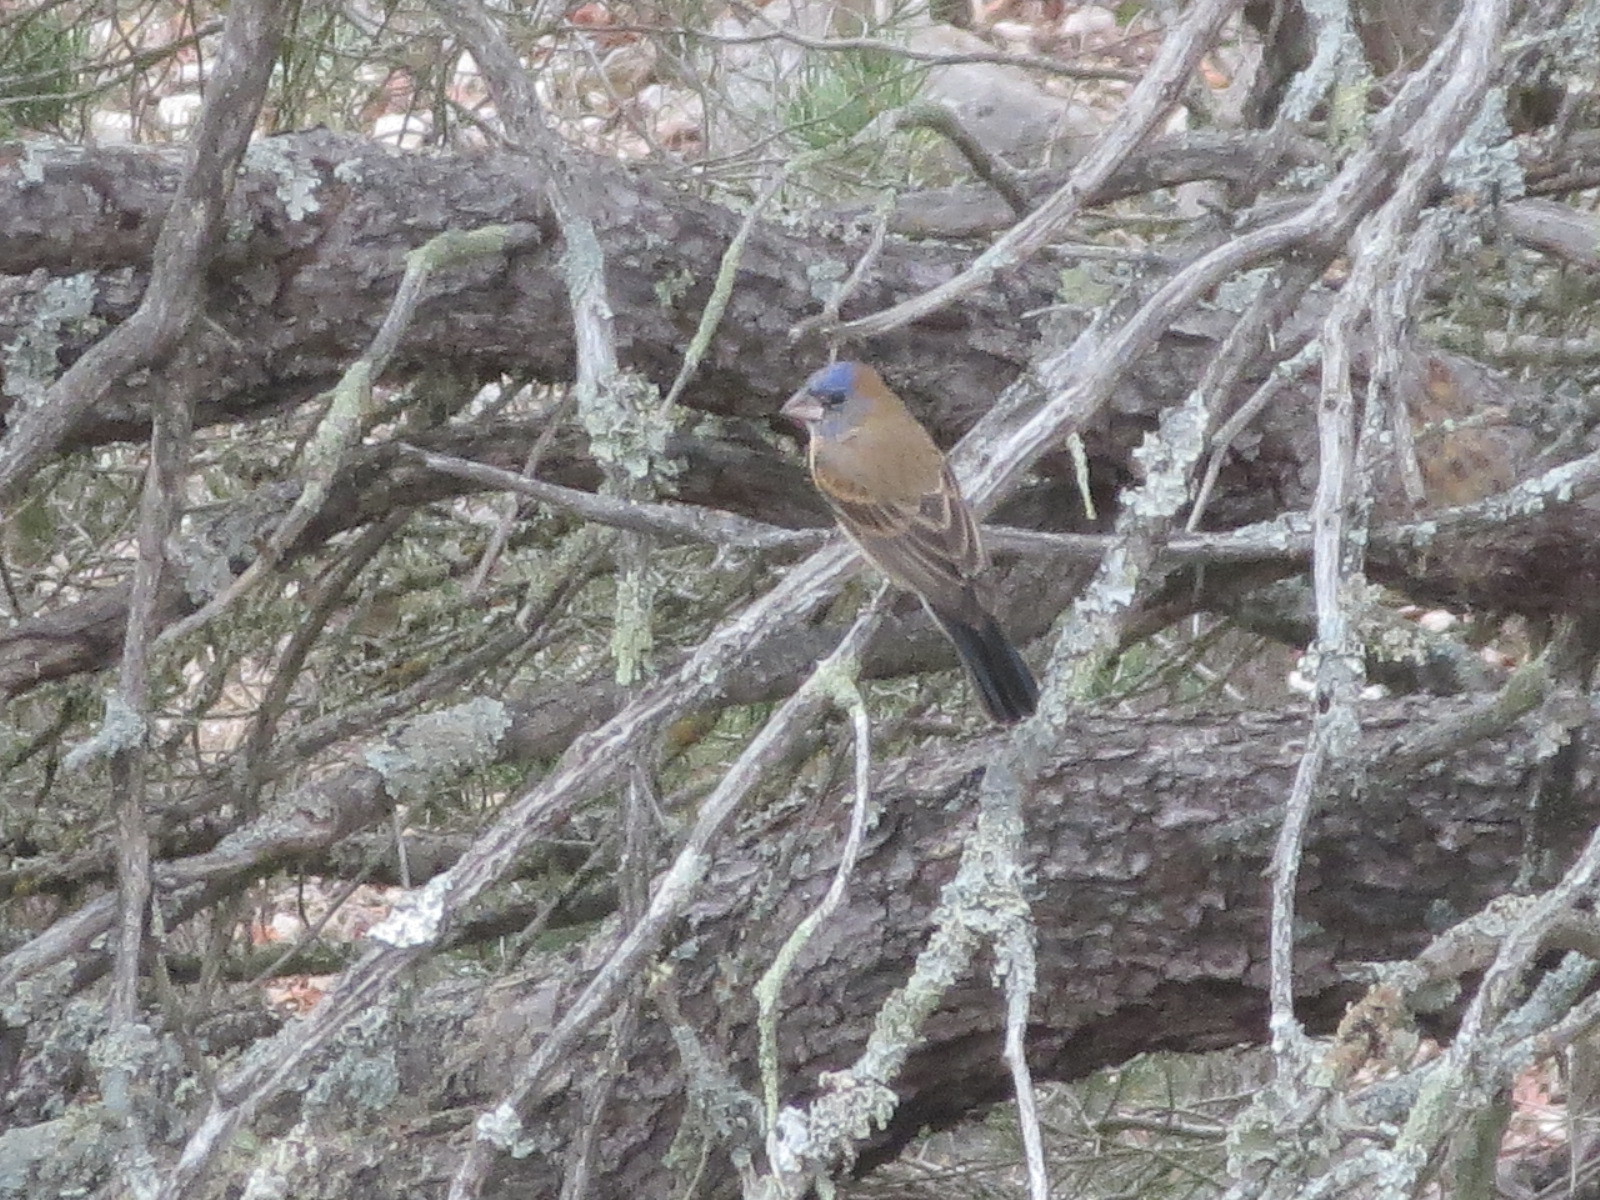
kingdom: Animalia
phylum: Chordata
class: Aves
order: Passeriformes
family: Cardinalidae
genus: Passerina
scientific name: Passerina caerulea
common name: Blue grosbeak
